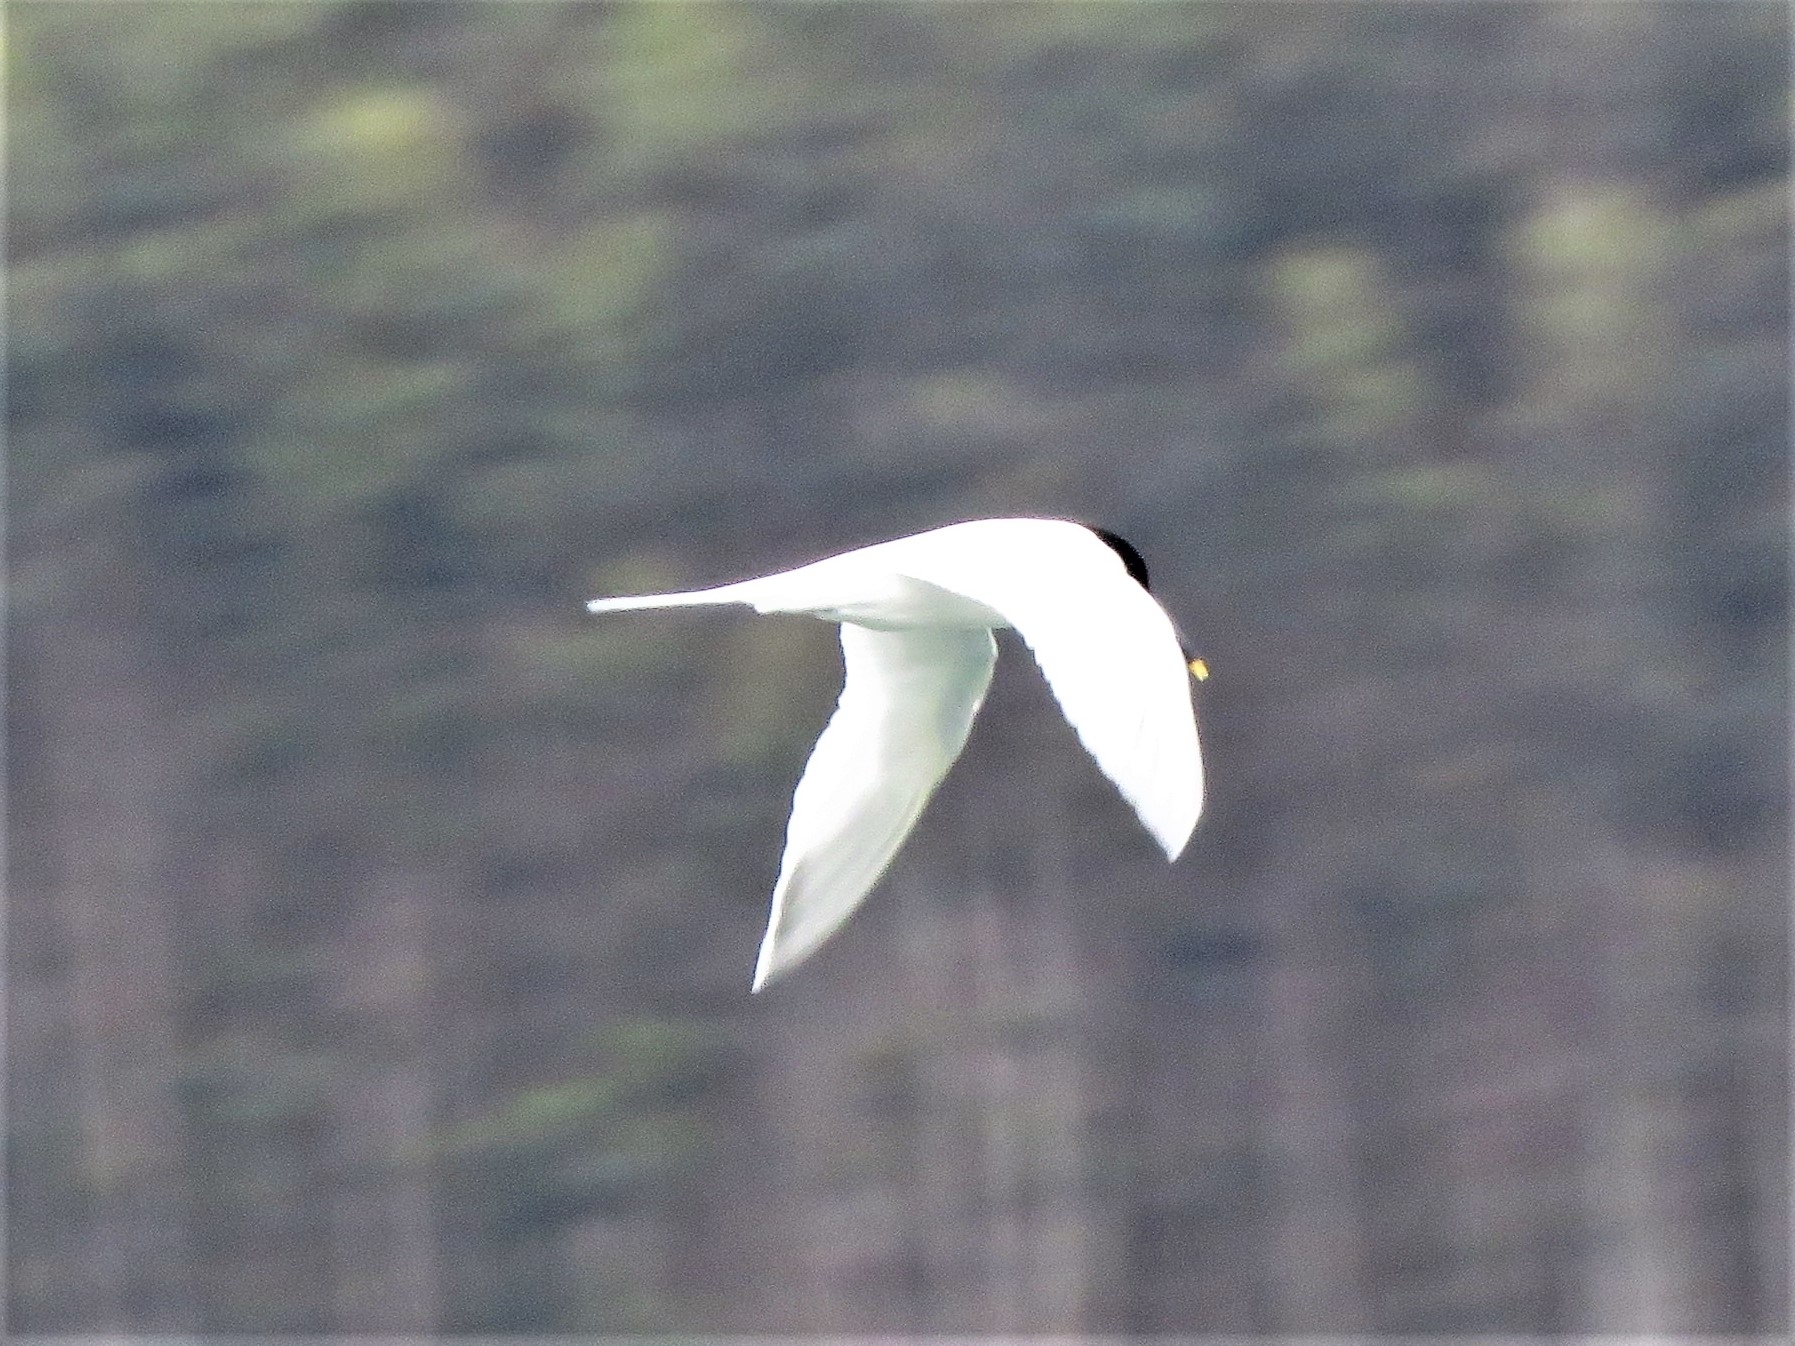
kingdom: Animalia
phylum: Chordata
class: Aves
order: Charadriiformes
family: Laridae
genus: Thalasseus
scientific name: Thalasseus sandvicensis
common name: Sandwich tern
